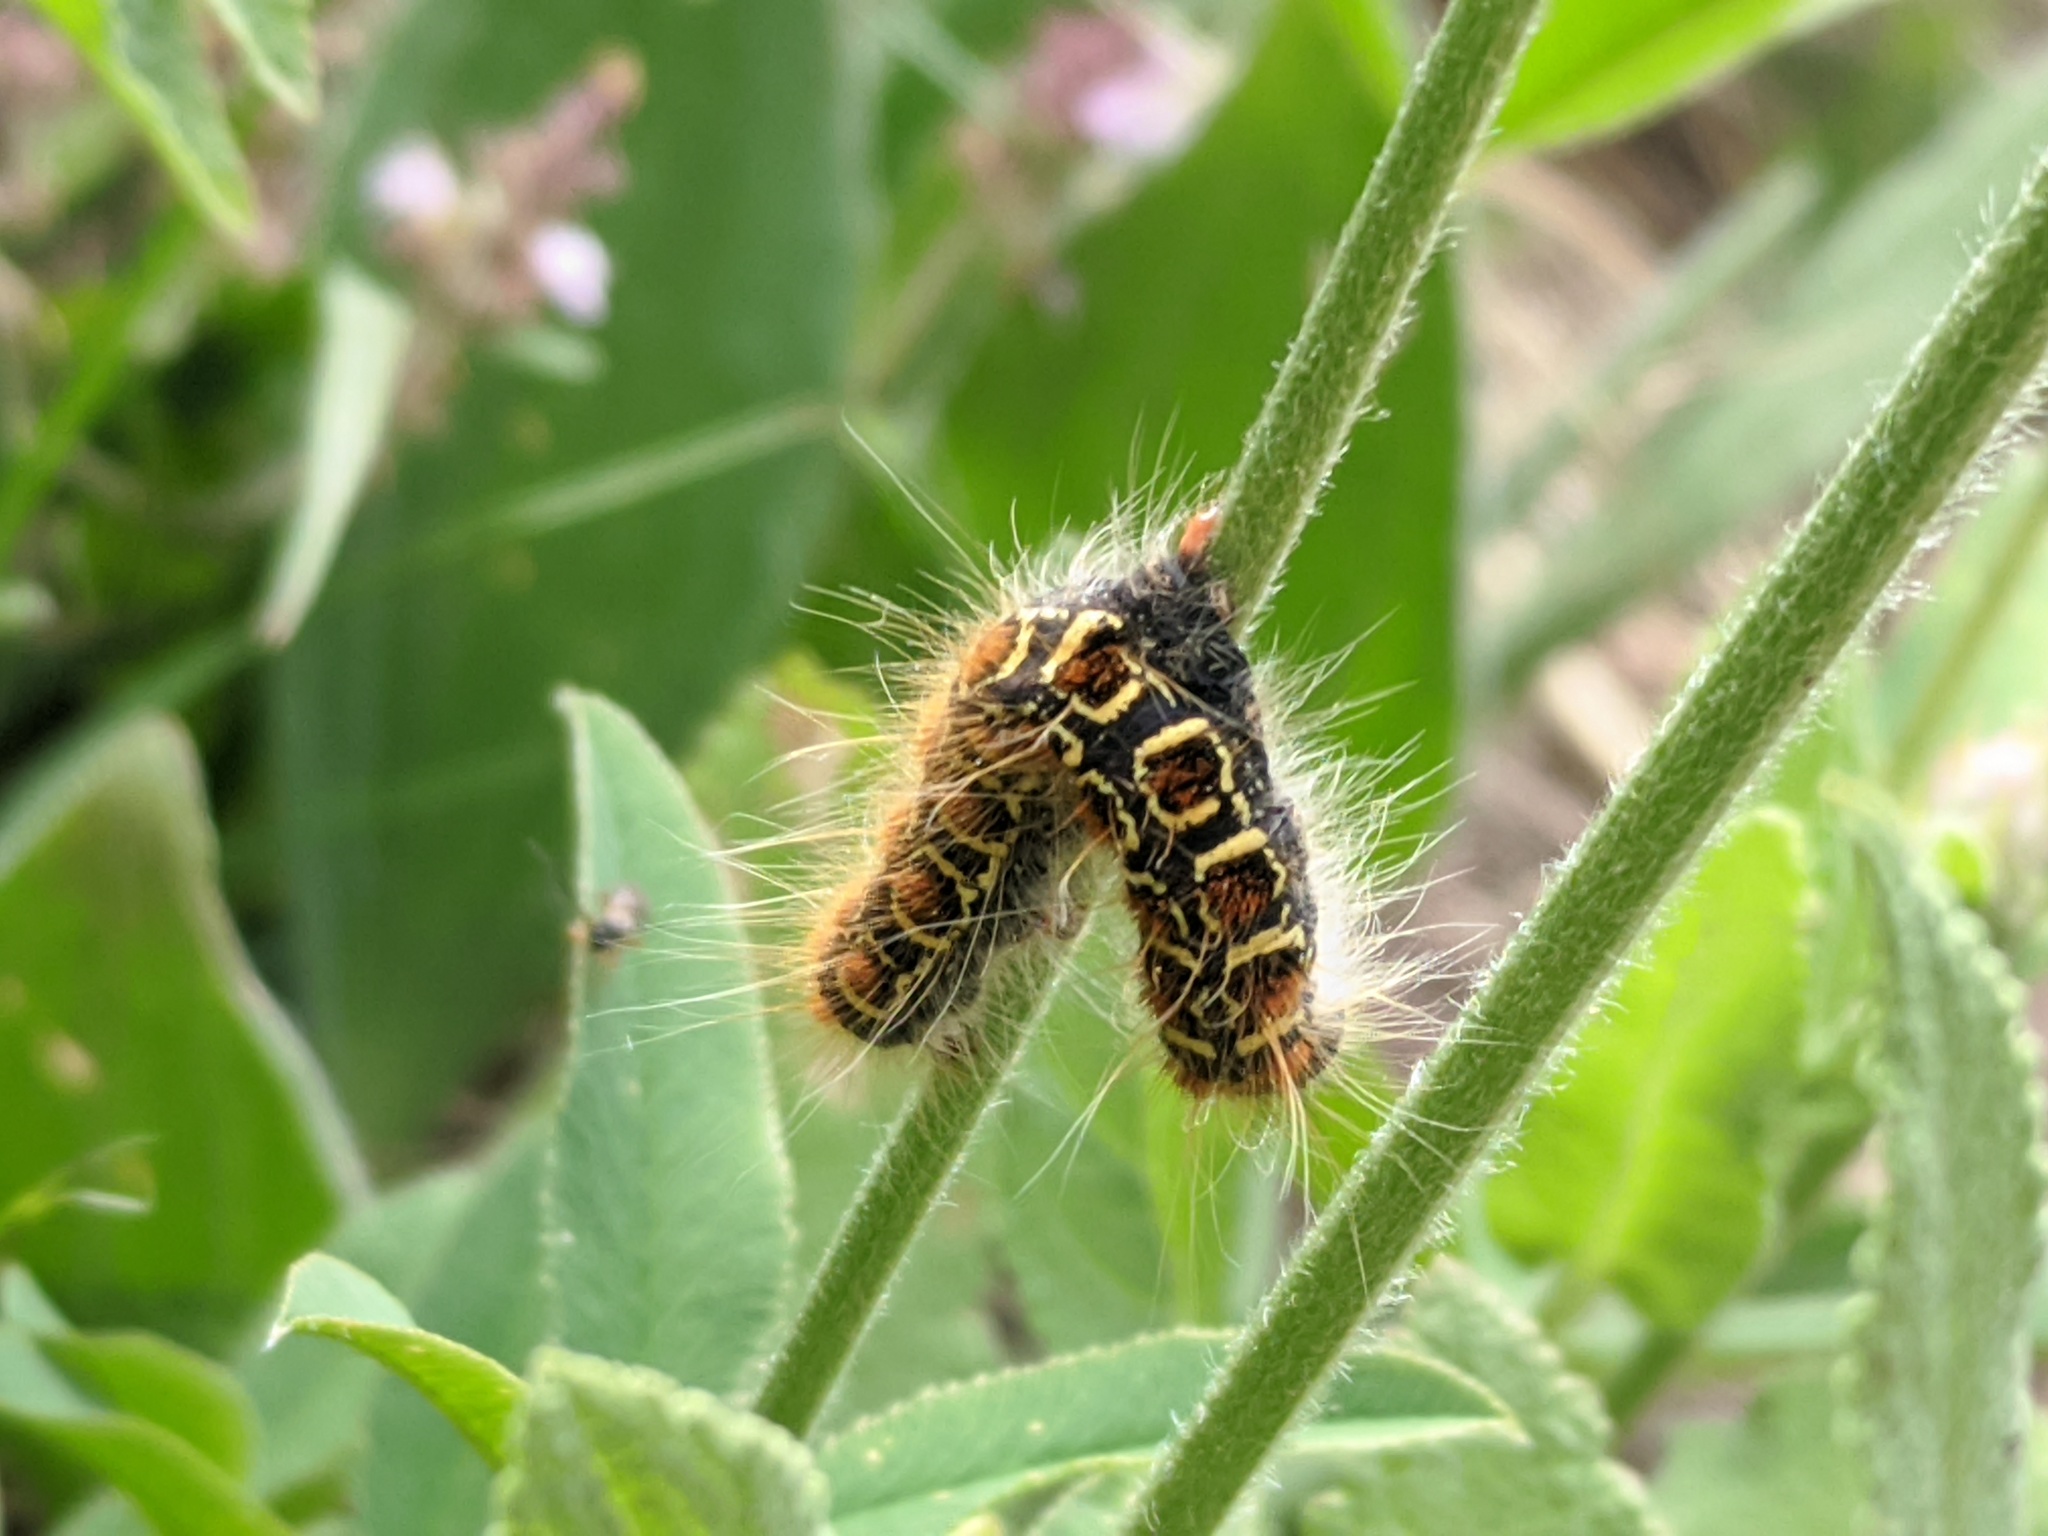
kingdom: Animalia
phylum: Arthropoda
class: Insecta
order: Lepidoptera
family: Lasiocampidae
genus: Eriogaster
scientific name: Eriogaster lanestris
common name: Small eggar
